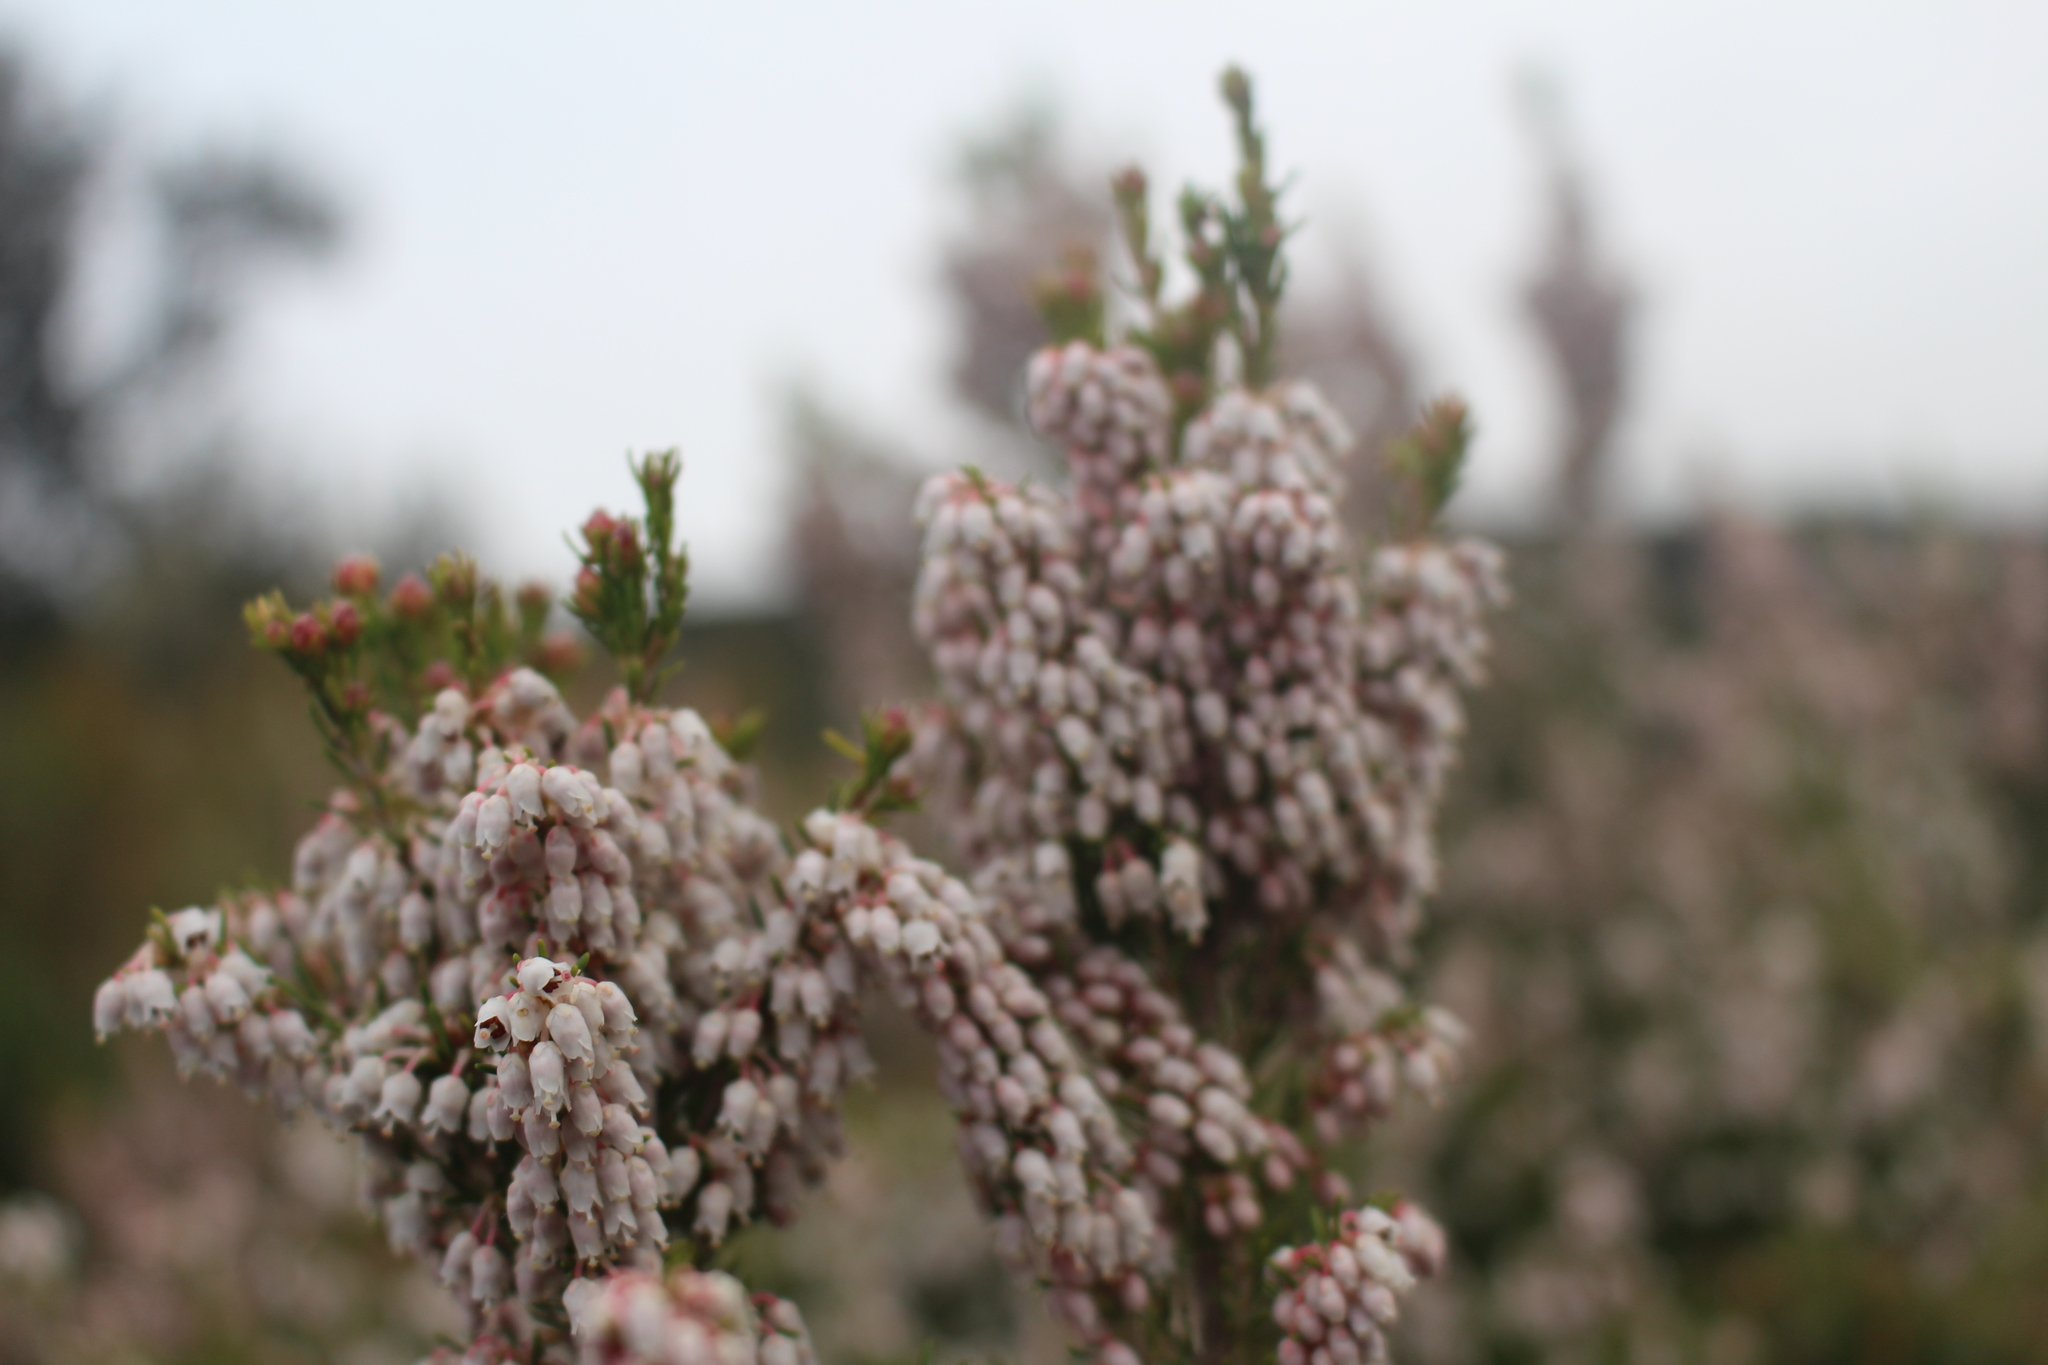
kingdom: Plantae
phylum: Tracheophyta
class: Magnoliopsida
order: Ericales
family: Ericaceae
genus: Erica
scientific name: Erica arborea
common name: Tree heath
